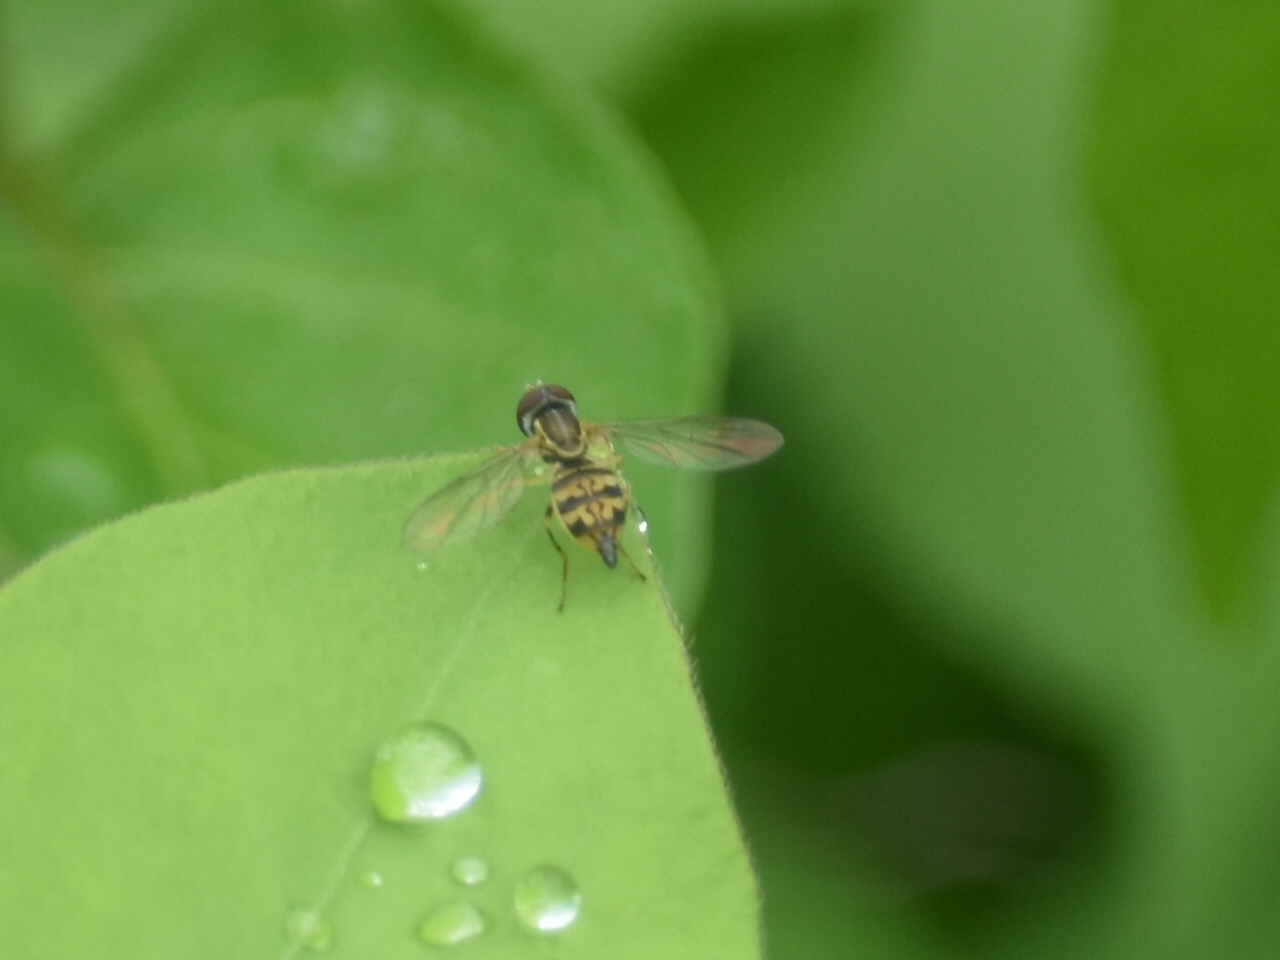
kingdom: Animalia
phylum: Arthropoda
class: Insecta
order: Diptera
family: Syrphidae
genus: Toxomerus
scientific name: Toxomerus geminatus
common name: Eastern calligrapher
